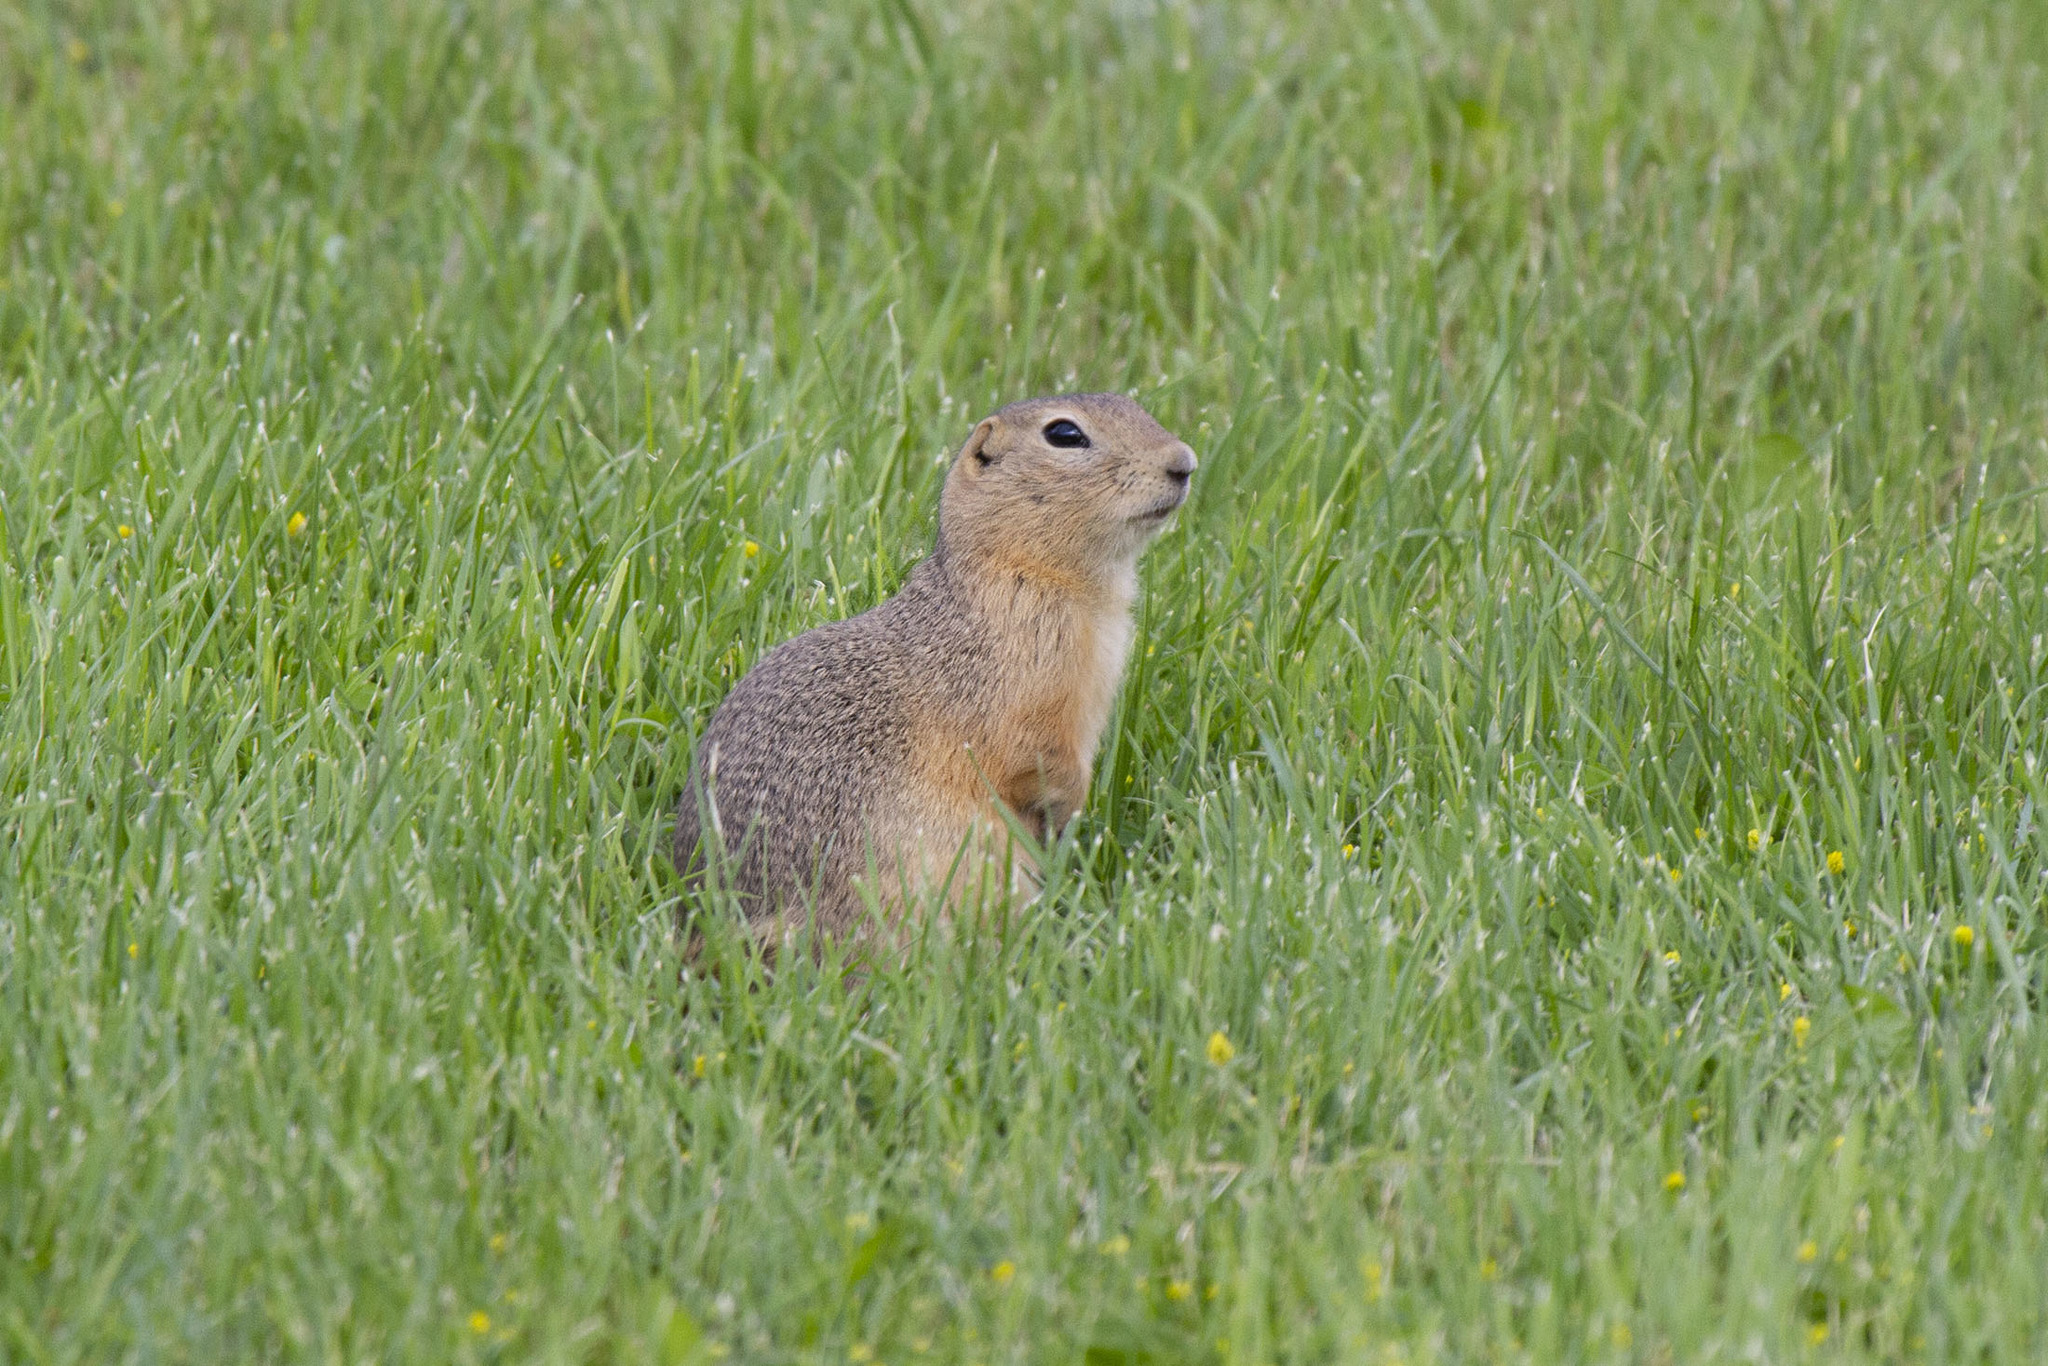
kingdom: Animalia
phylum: Chordata
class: Mammalia
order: Rodentia
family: Sciuridae
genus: Urocitellus
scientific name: Urocitellus richardsonii
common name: Richardson's ground squirrel
